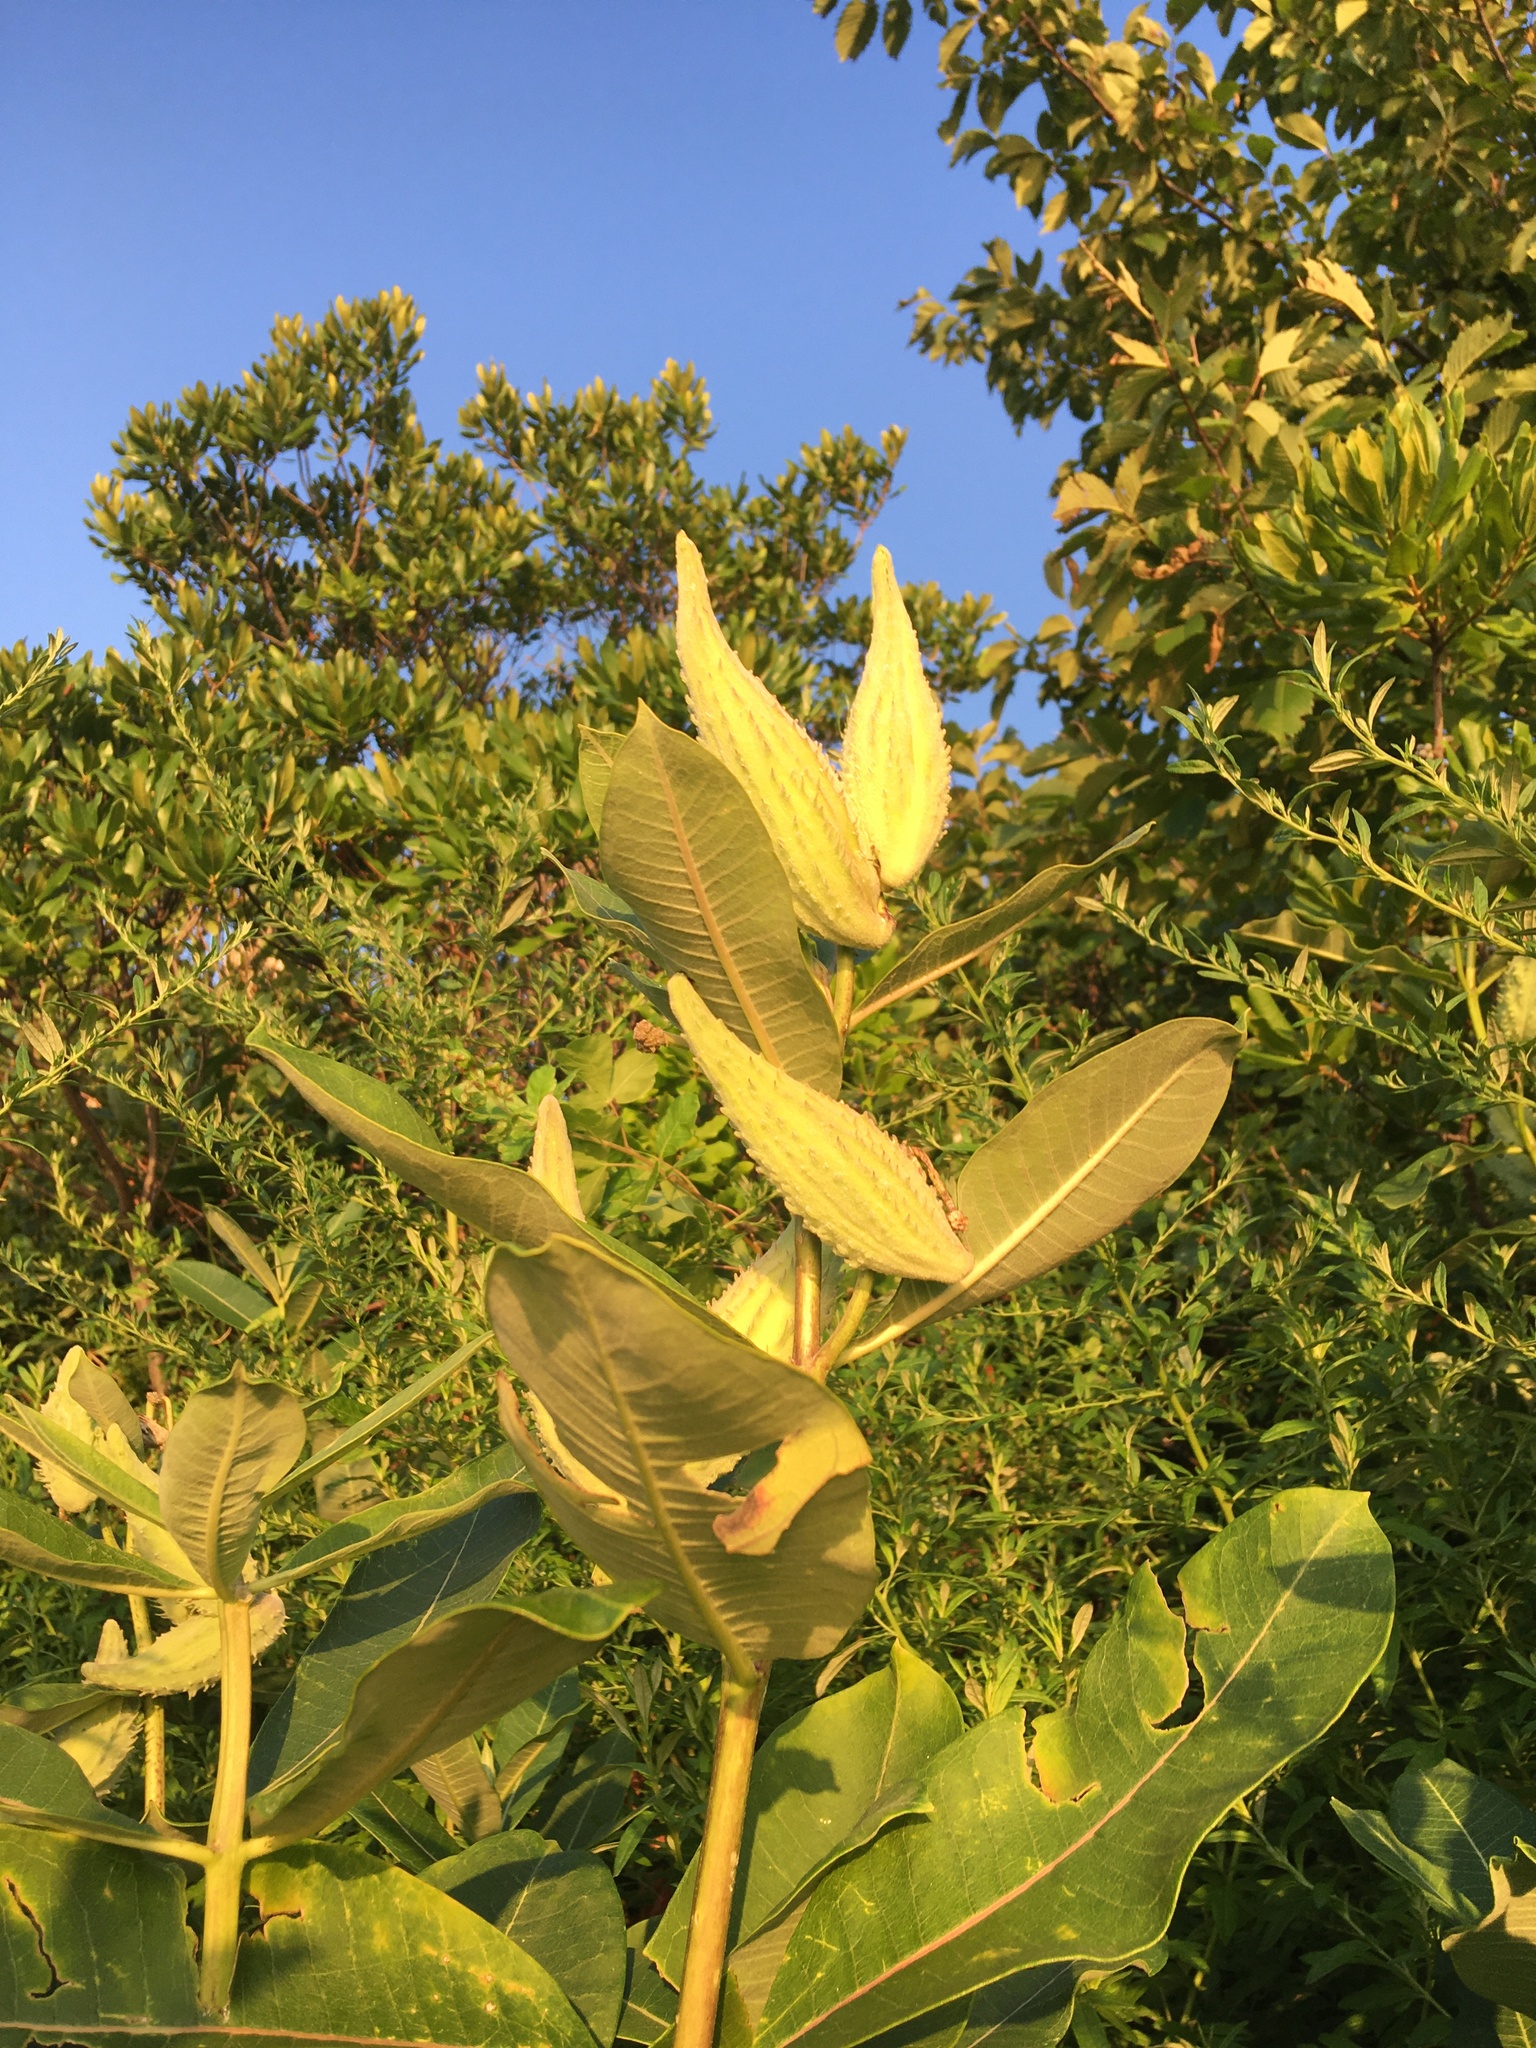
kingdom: Plantae
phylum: Tracheophyta
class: Magnoliopsida
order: Gentianales
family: Apocynaceae
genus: Asclepias
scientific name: Asclepias syriaca
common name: Common milkweed
